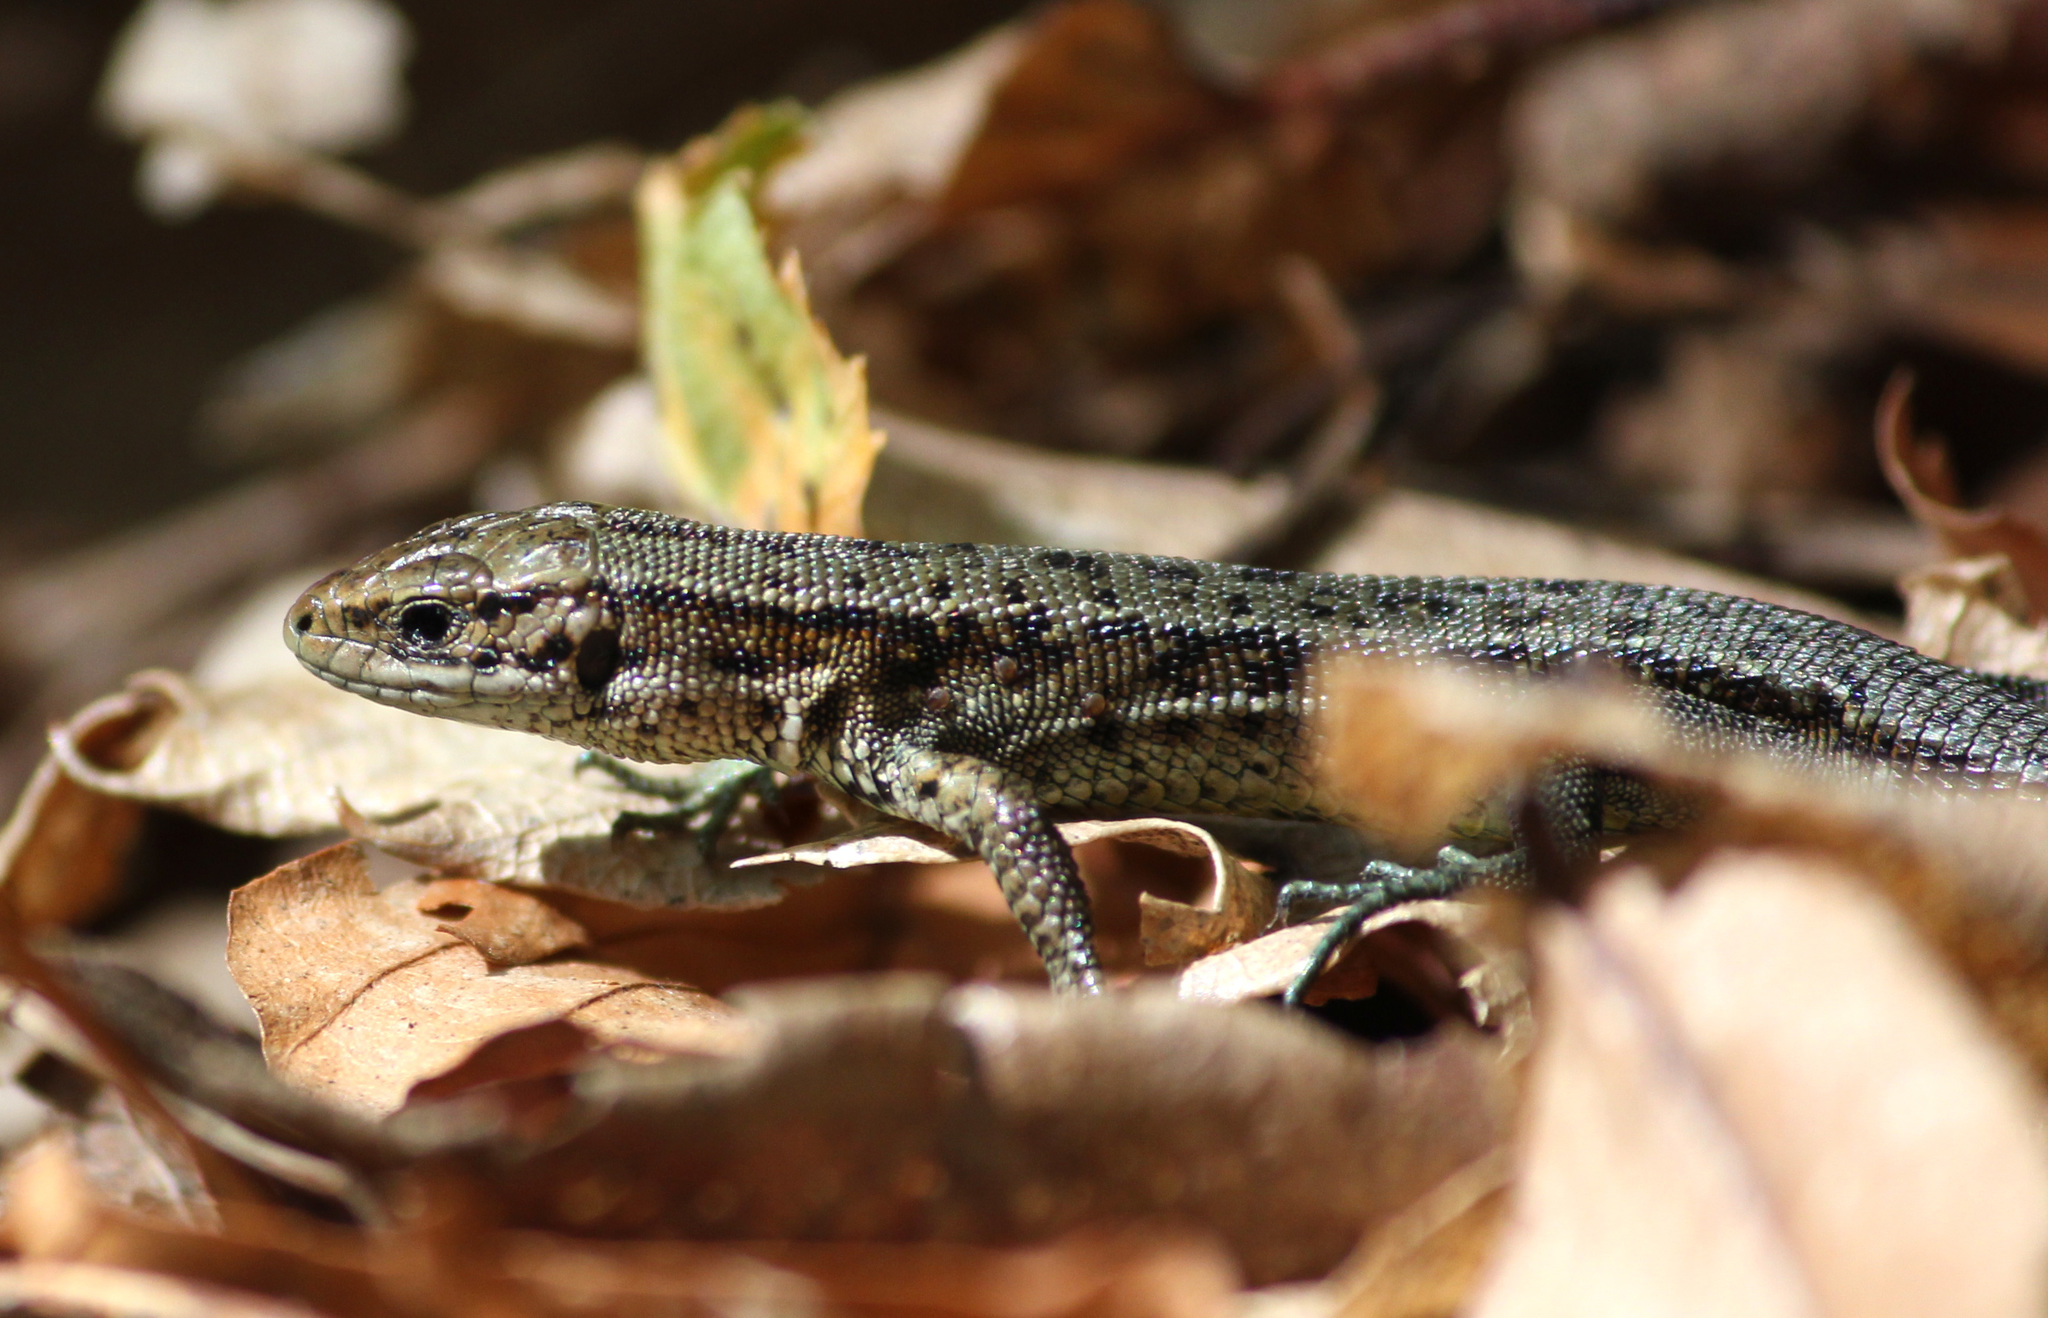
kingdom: Animalia
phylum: Chordata
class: Squamata
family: Lacertidae
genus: Zootoca
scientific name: Zootoca vivipara
